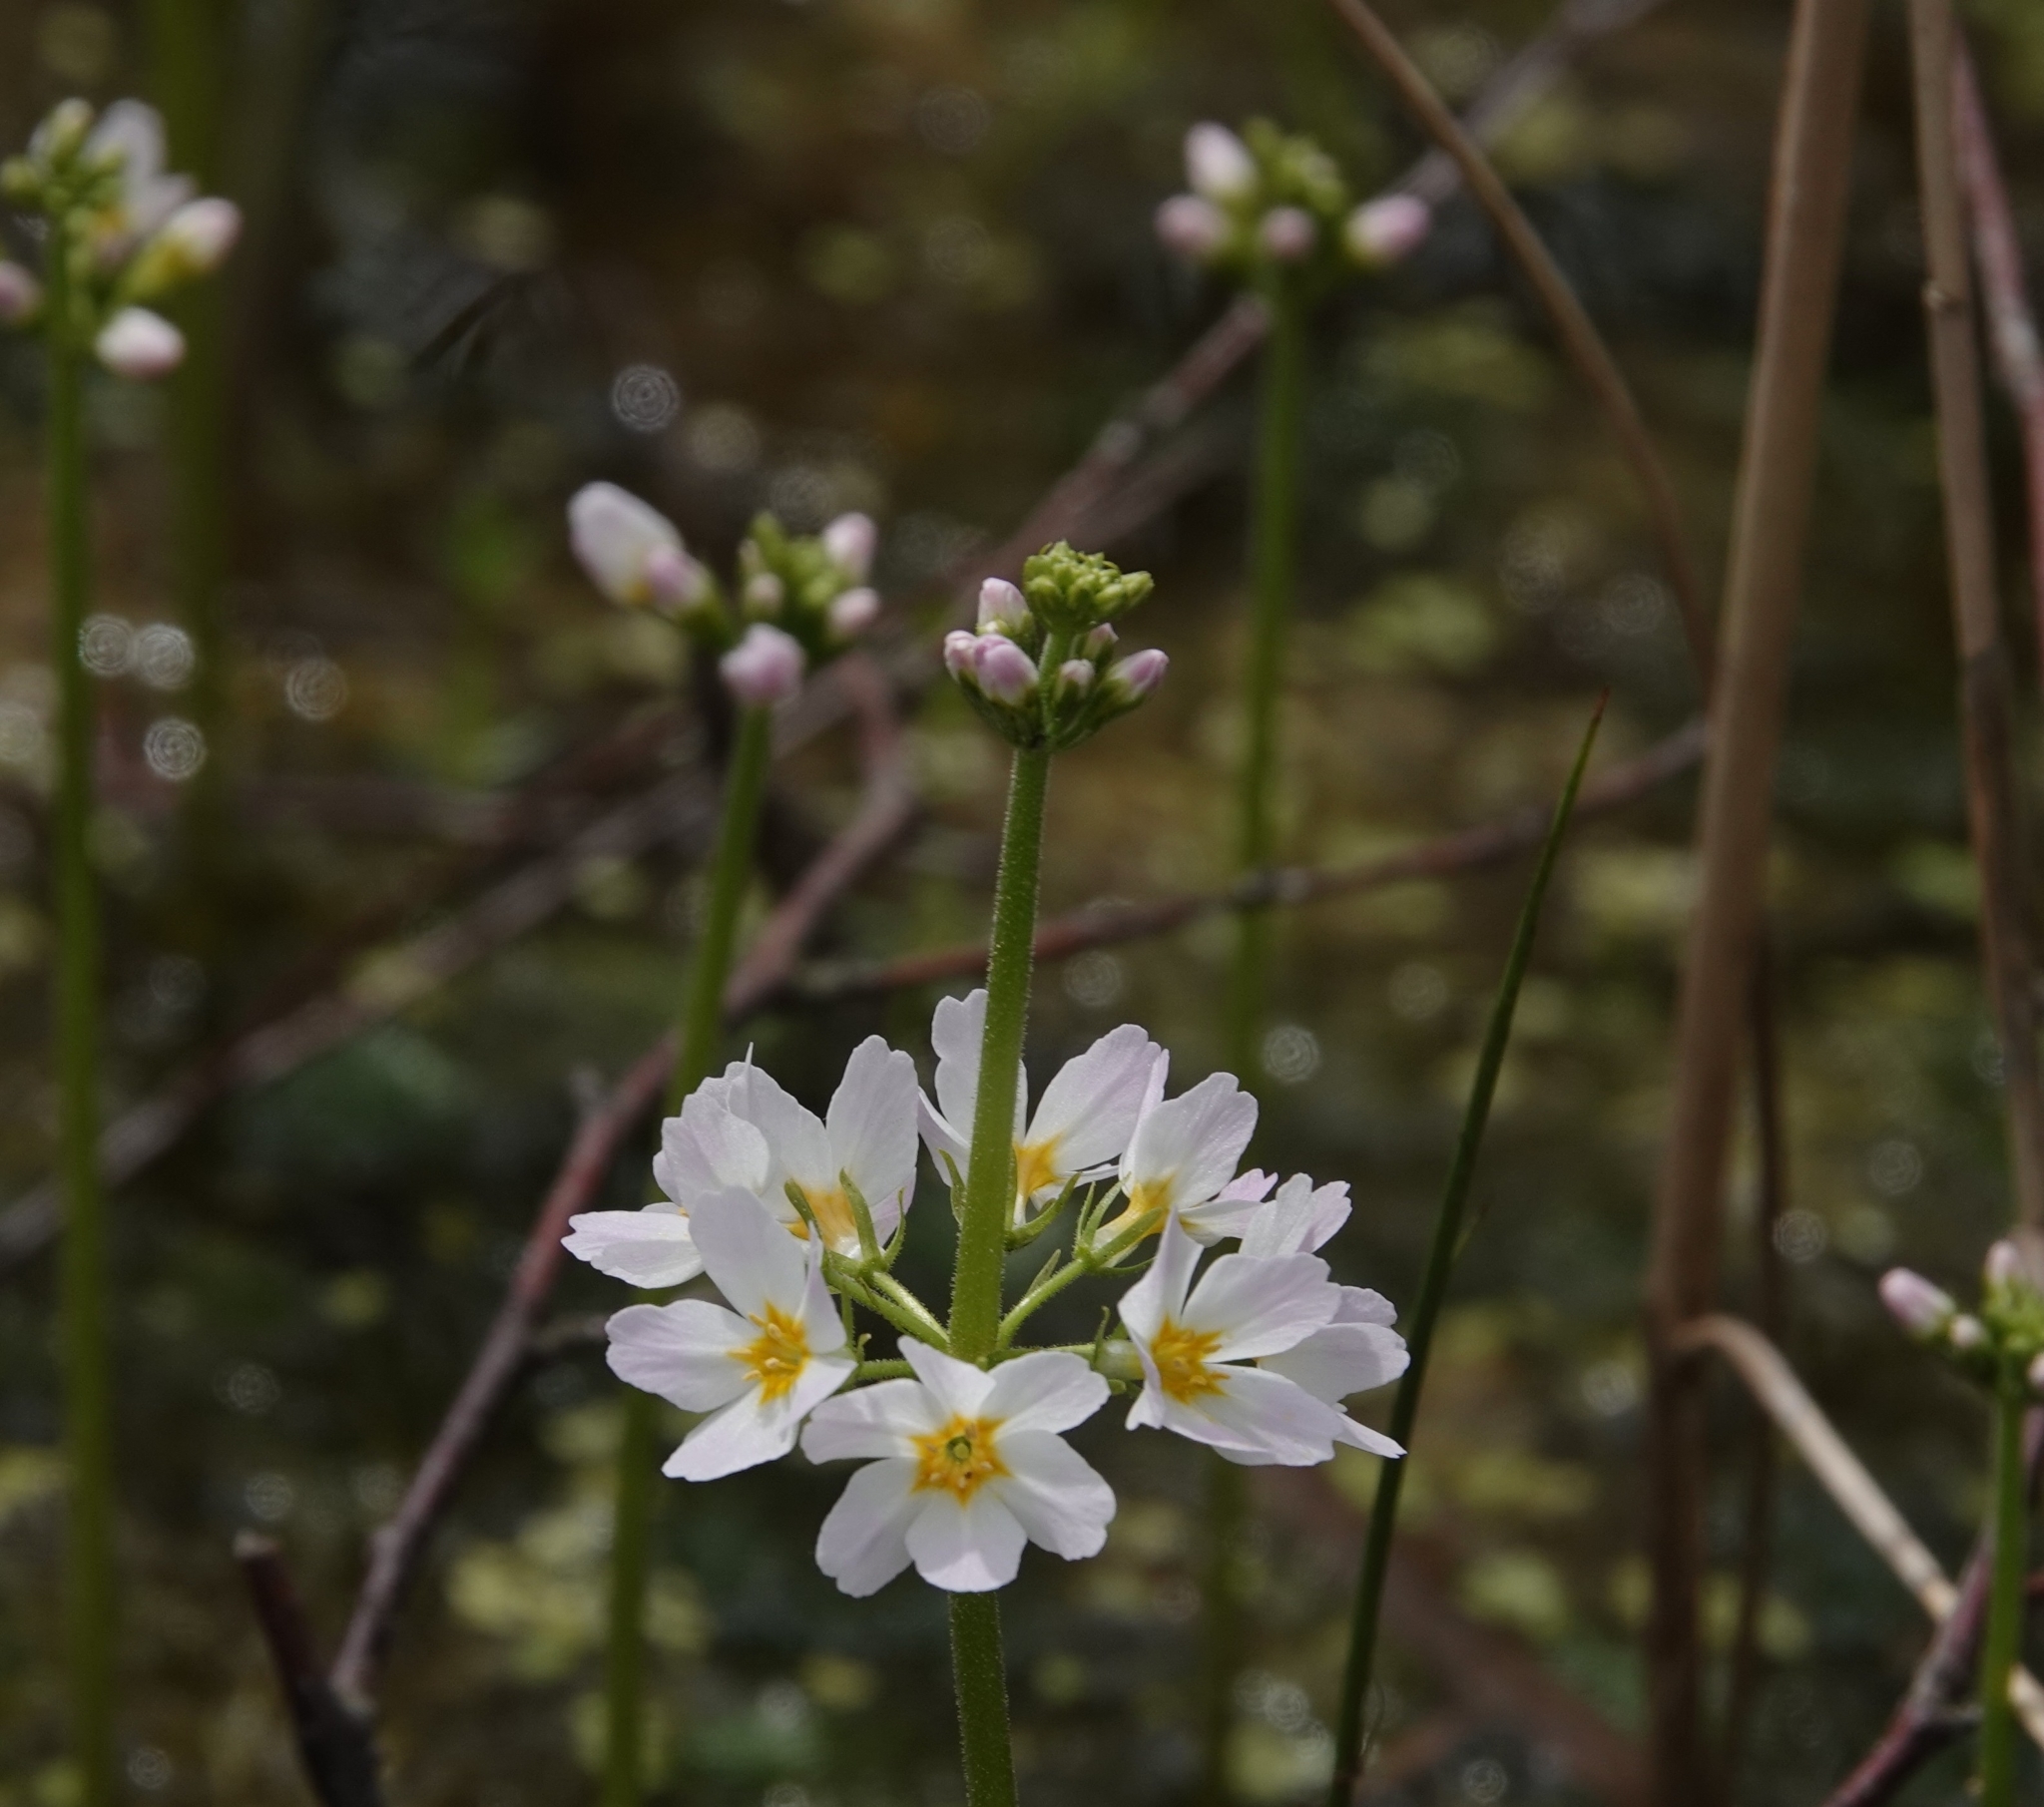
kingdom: Plantae
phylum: Tracheophyta
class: Magnoliopsida
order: Ericales
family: Primulaceae
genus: Hottonia
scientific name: Hottonia palustris
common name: Water-violet
